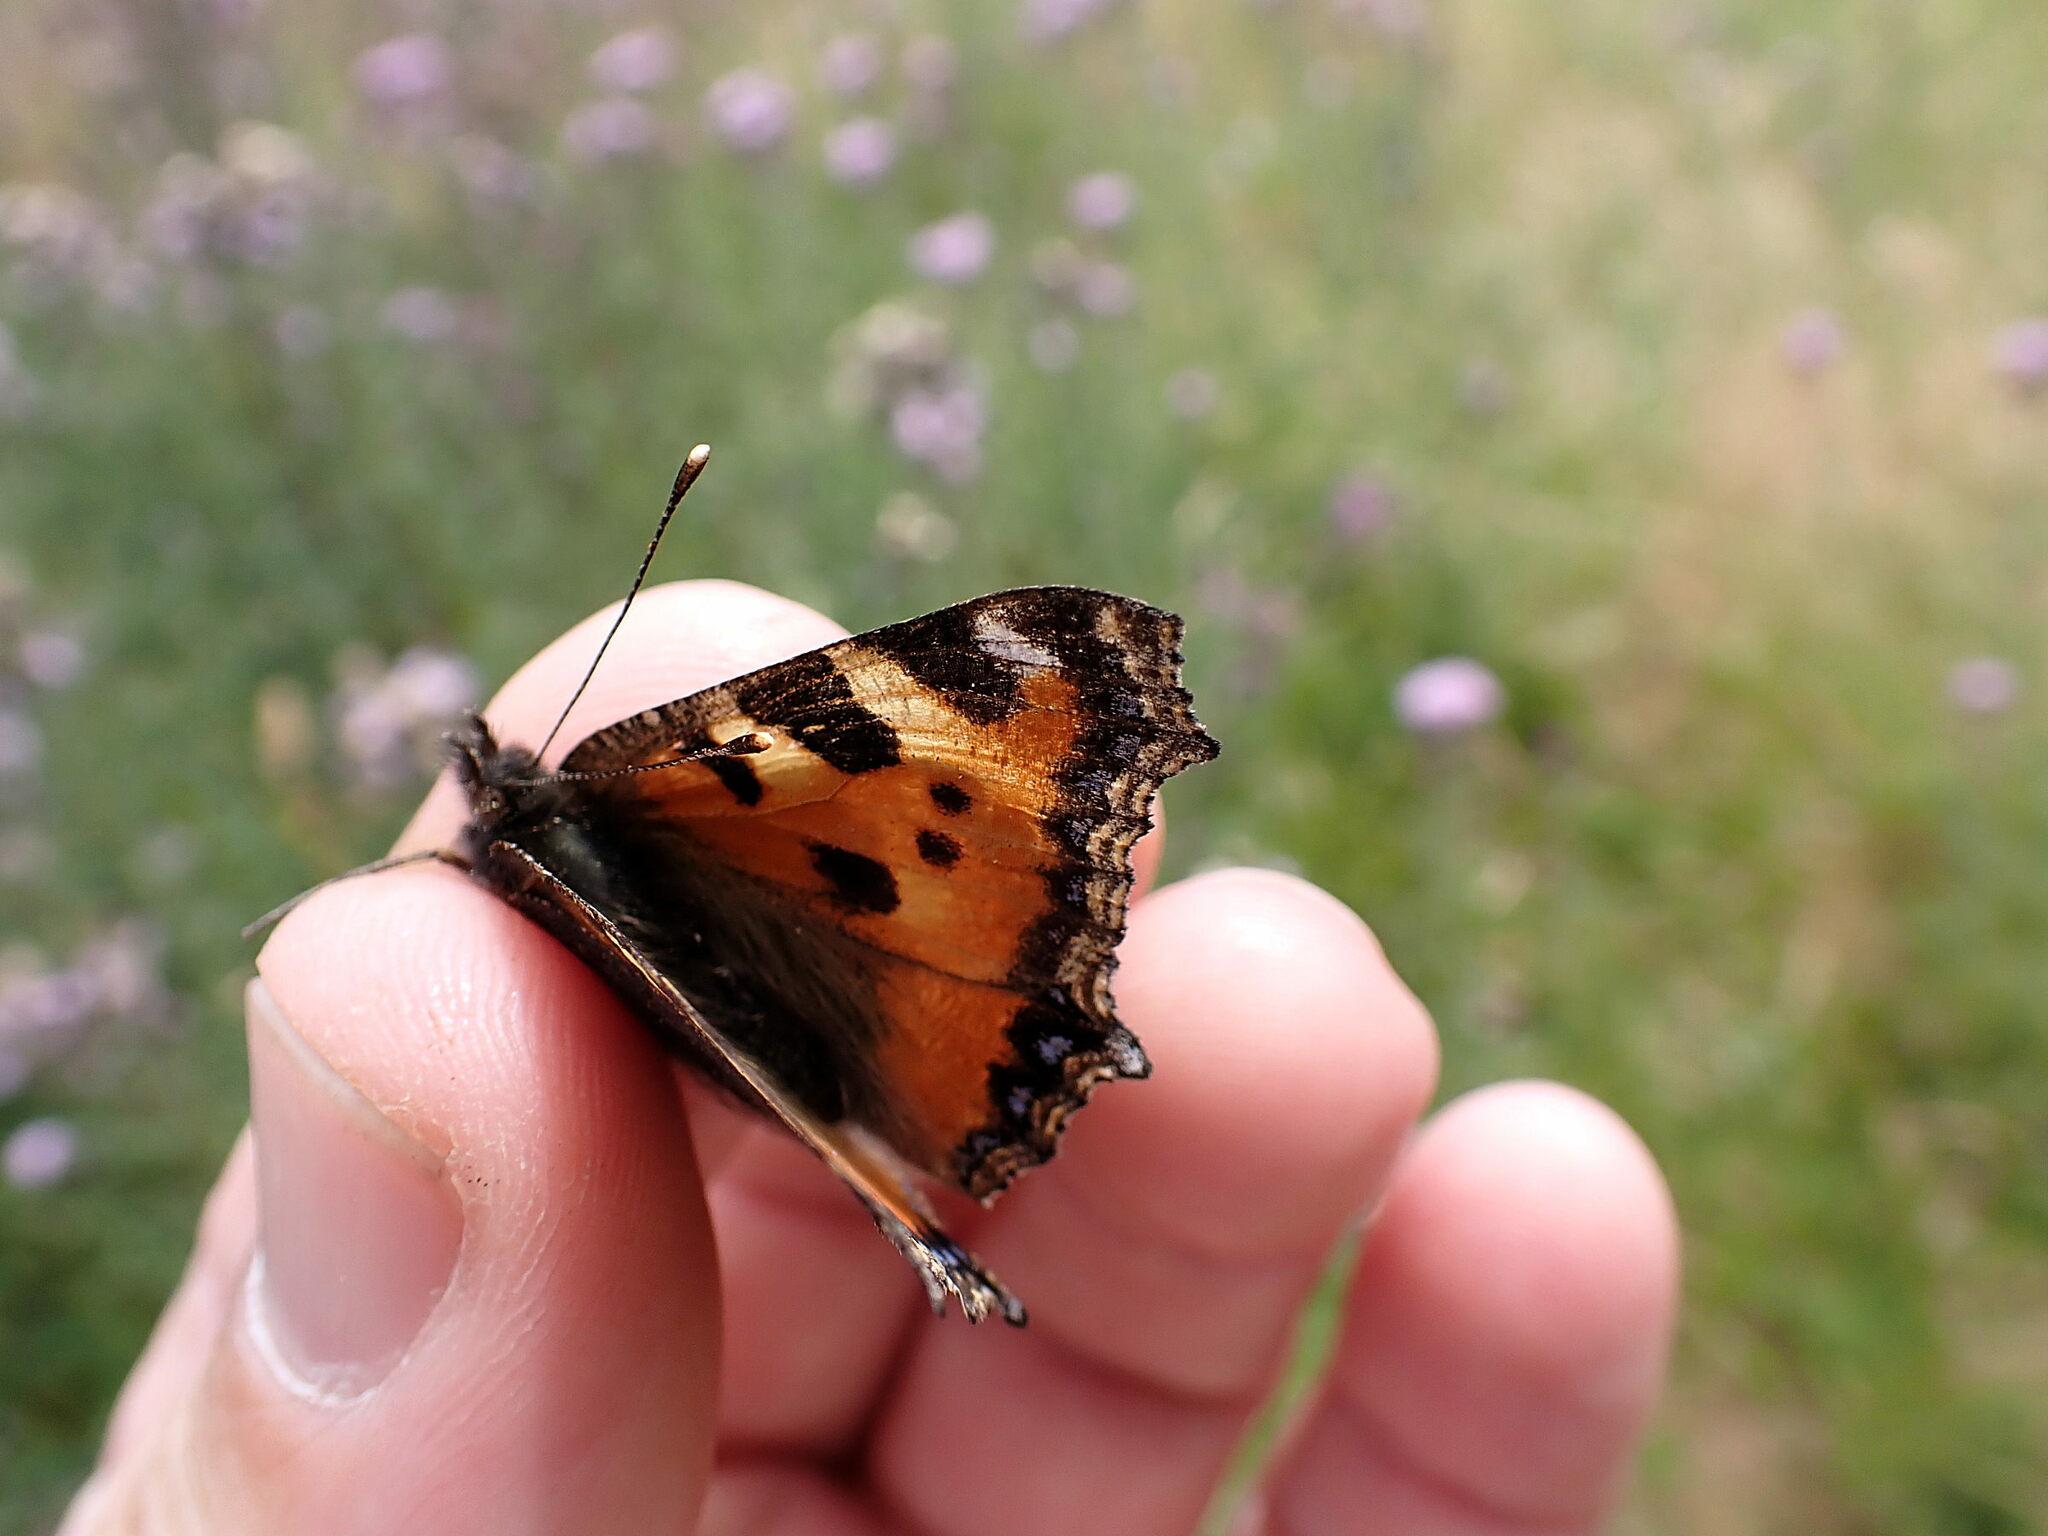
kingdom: Animalia
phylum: Arthropoda
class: Insecta
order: Lepidoptera
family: Nymphalidae
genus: Aglais
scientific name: Aglais urticae
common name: Small tortoiseshell
